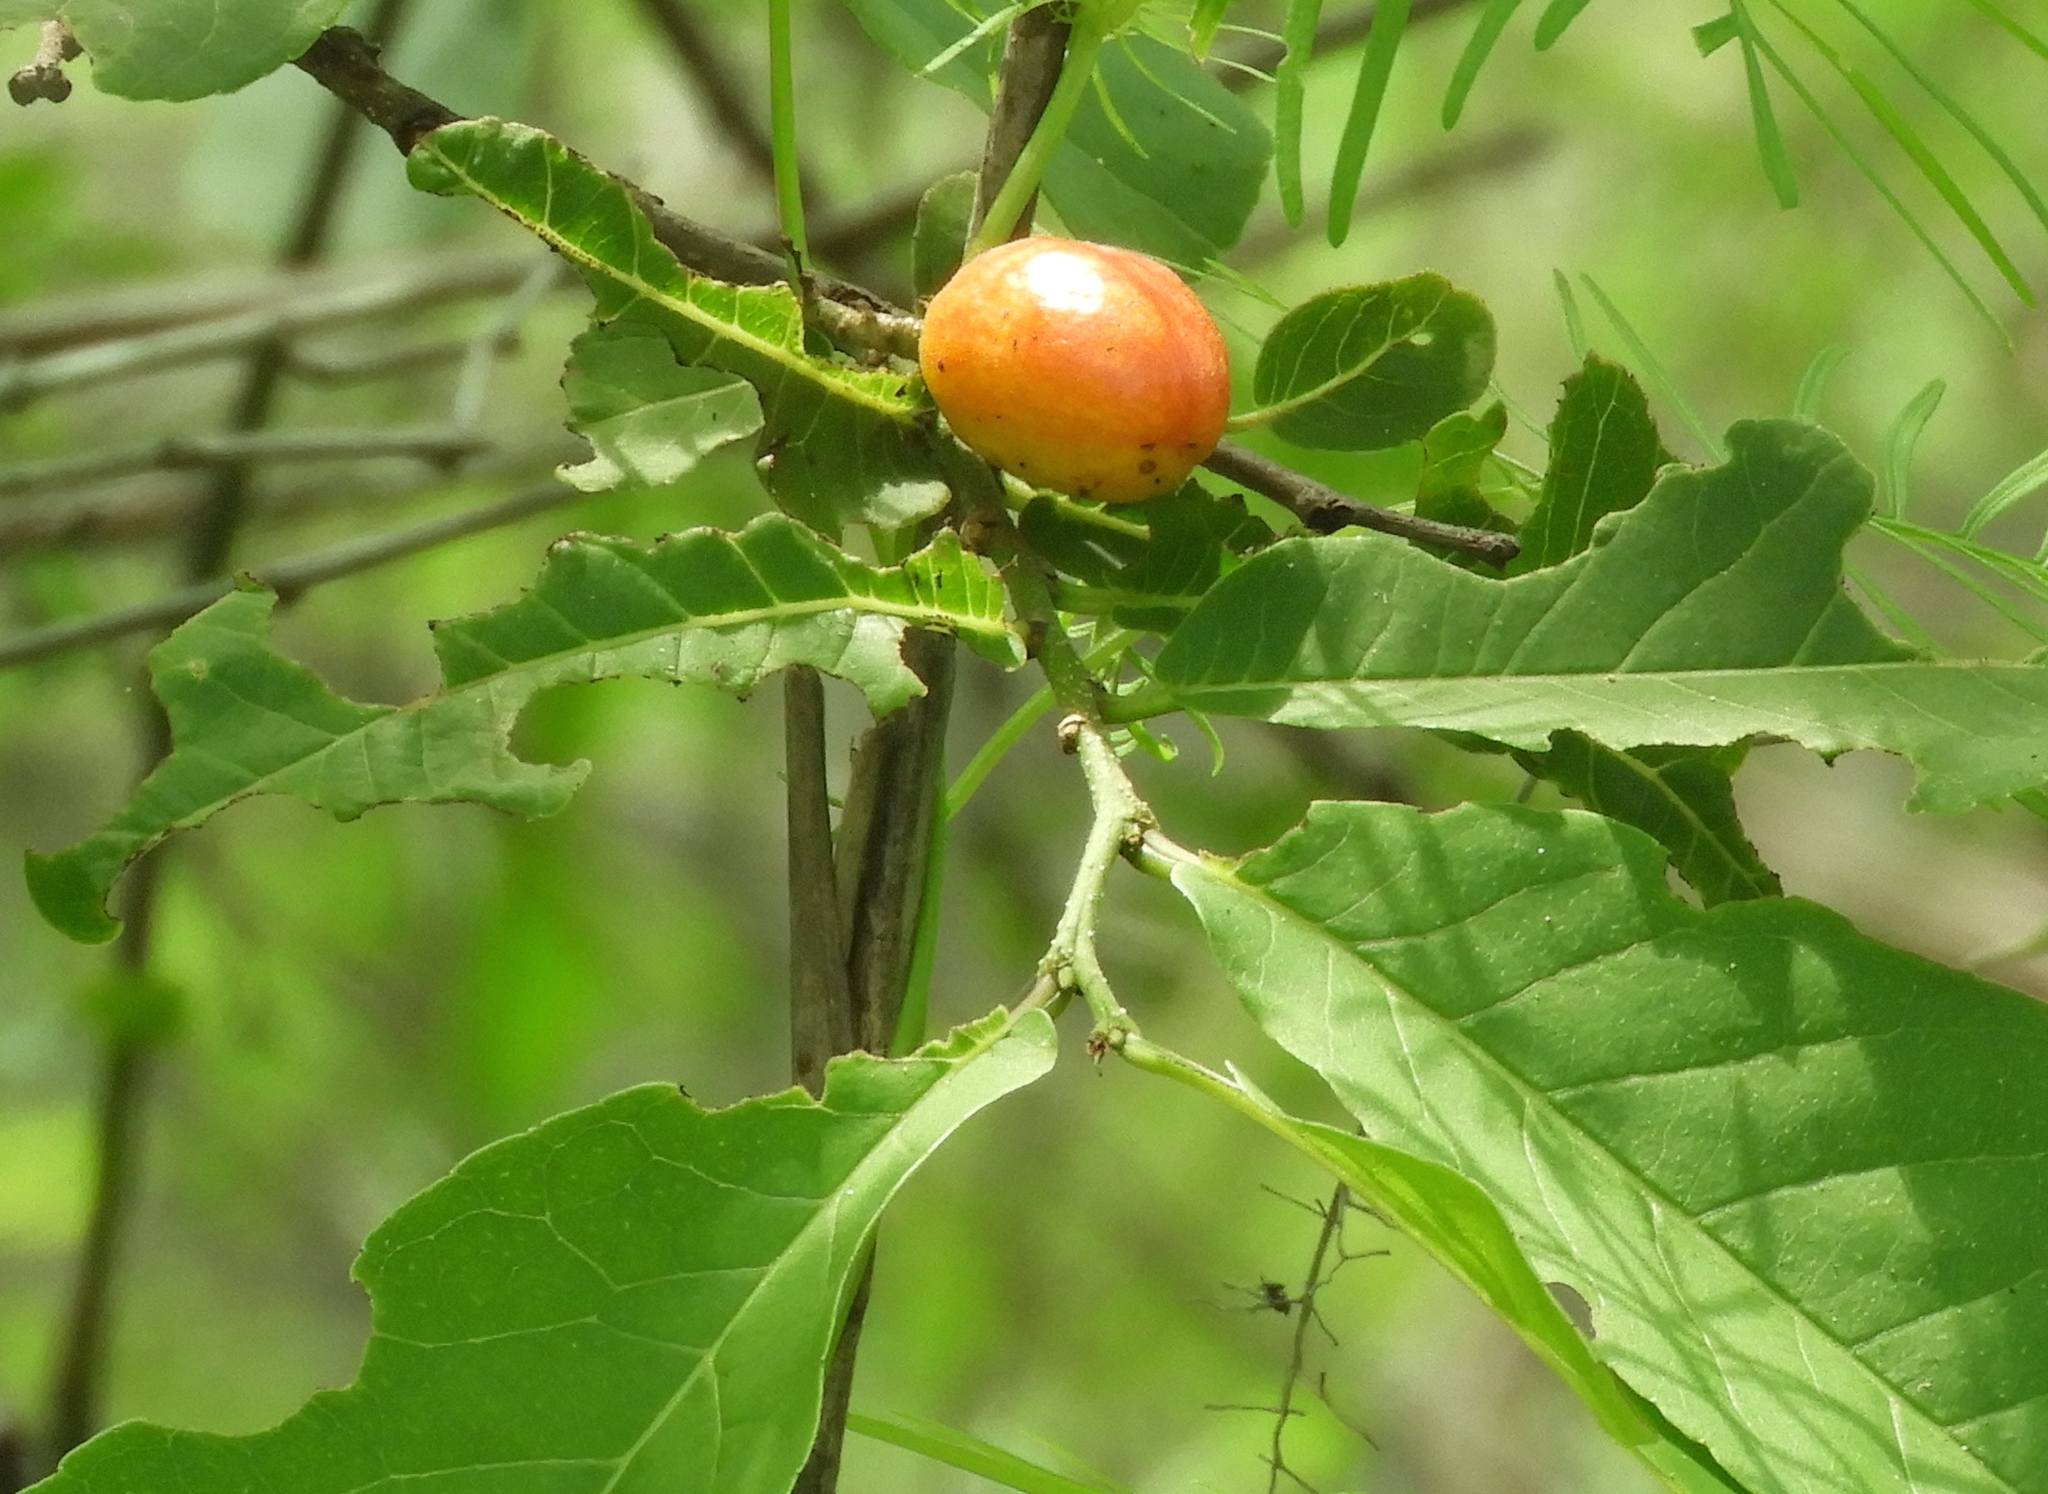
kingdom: Plantae
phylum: Tracheophyta
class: Magnoliopsida
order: Malpighiales
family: Salicaceae
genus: Casearia
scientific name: Casearia corymbosa
